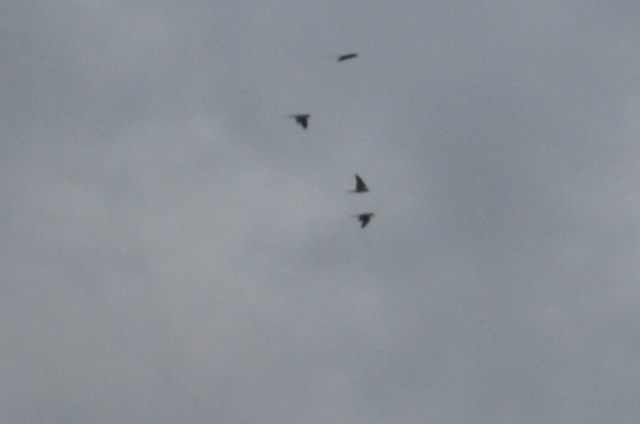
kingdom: Animalia
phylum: Chordata
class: Aves
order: Psittaciformes
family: Psittacidae
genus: Psittacula
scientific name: Psittacula krameri
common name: Rose-ringed parakeet
